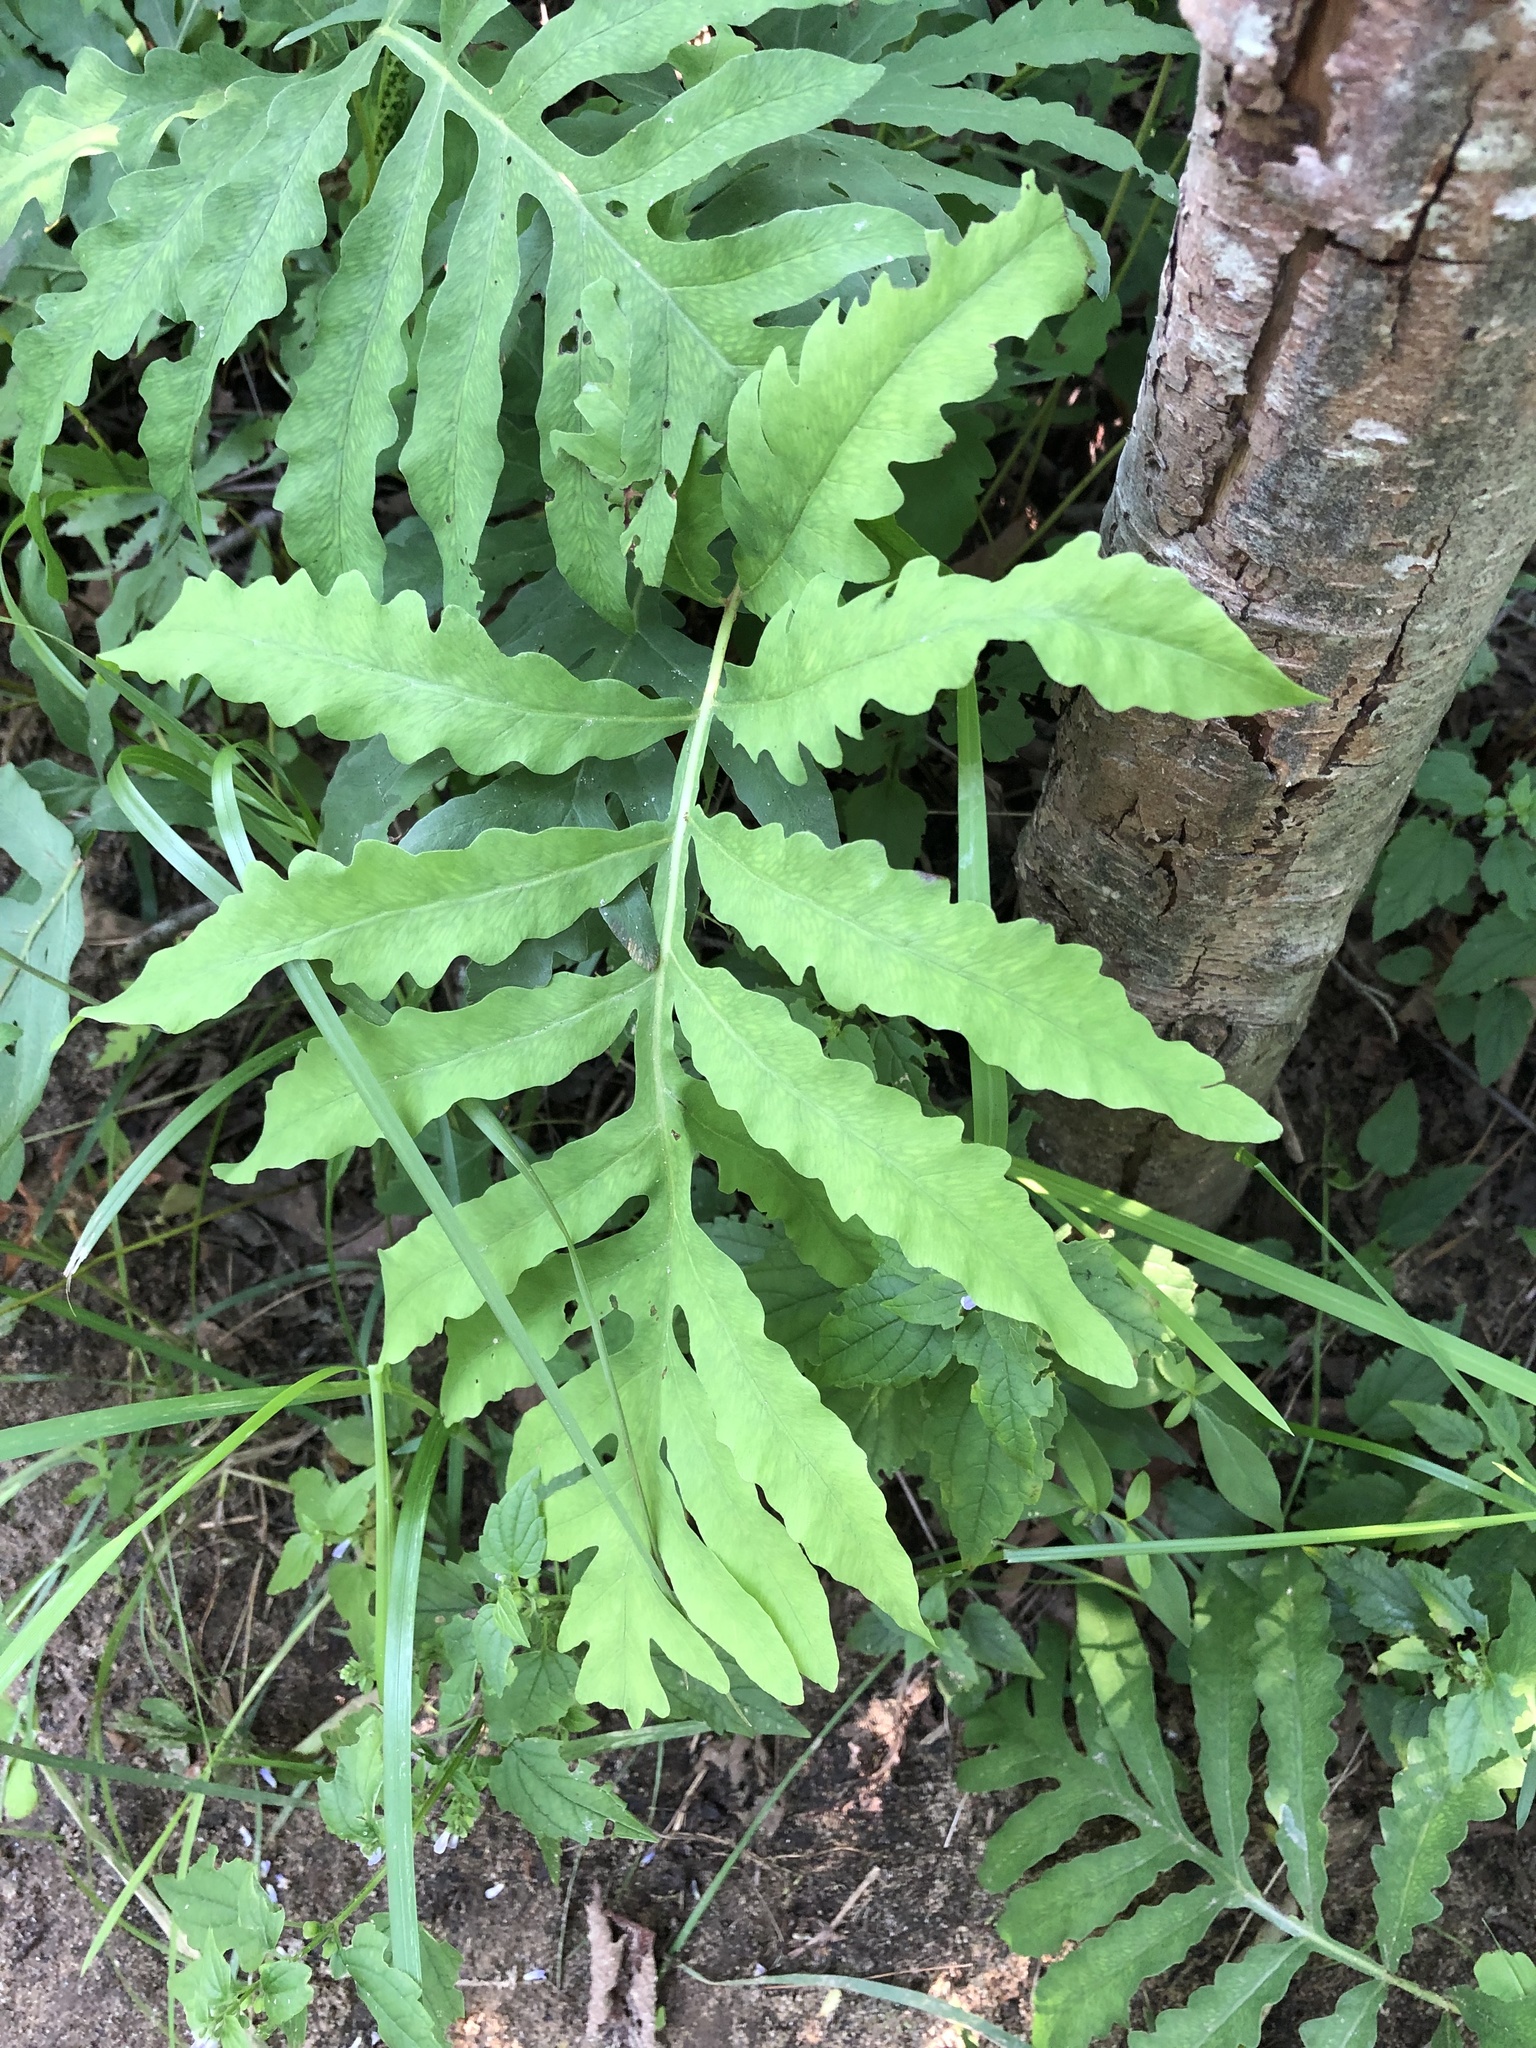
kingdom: Plantae
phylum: Tracheophyta
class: Polypodiopsida
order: Polypodiales
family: Onocleaceae
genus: Onoclea
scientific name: Onoclea sensibilis
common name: Sensitive fern
